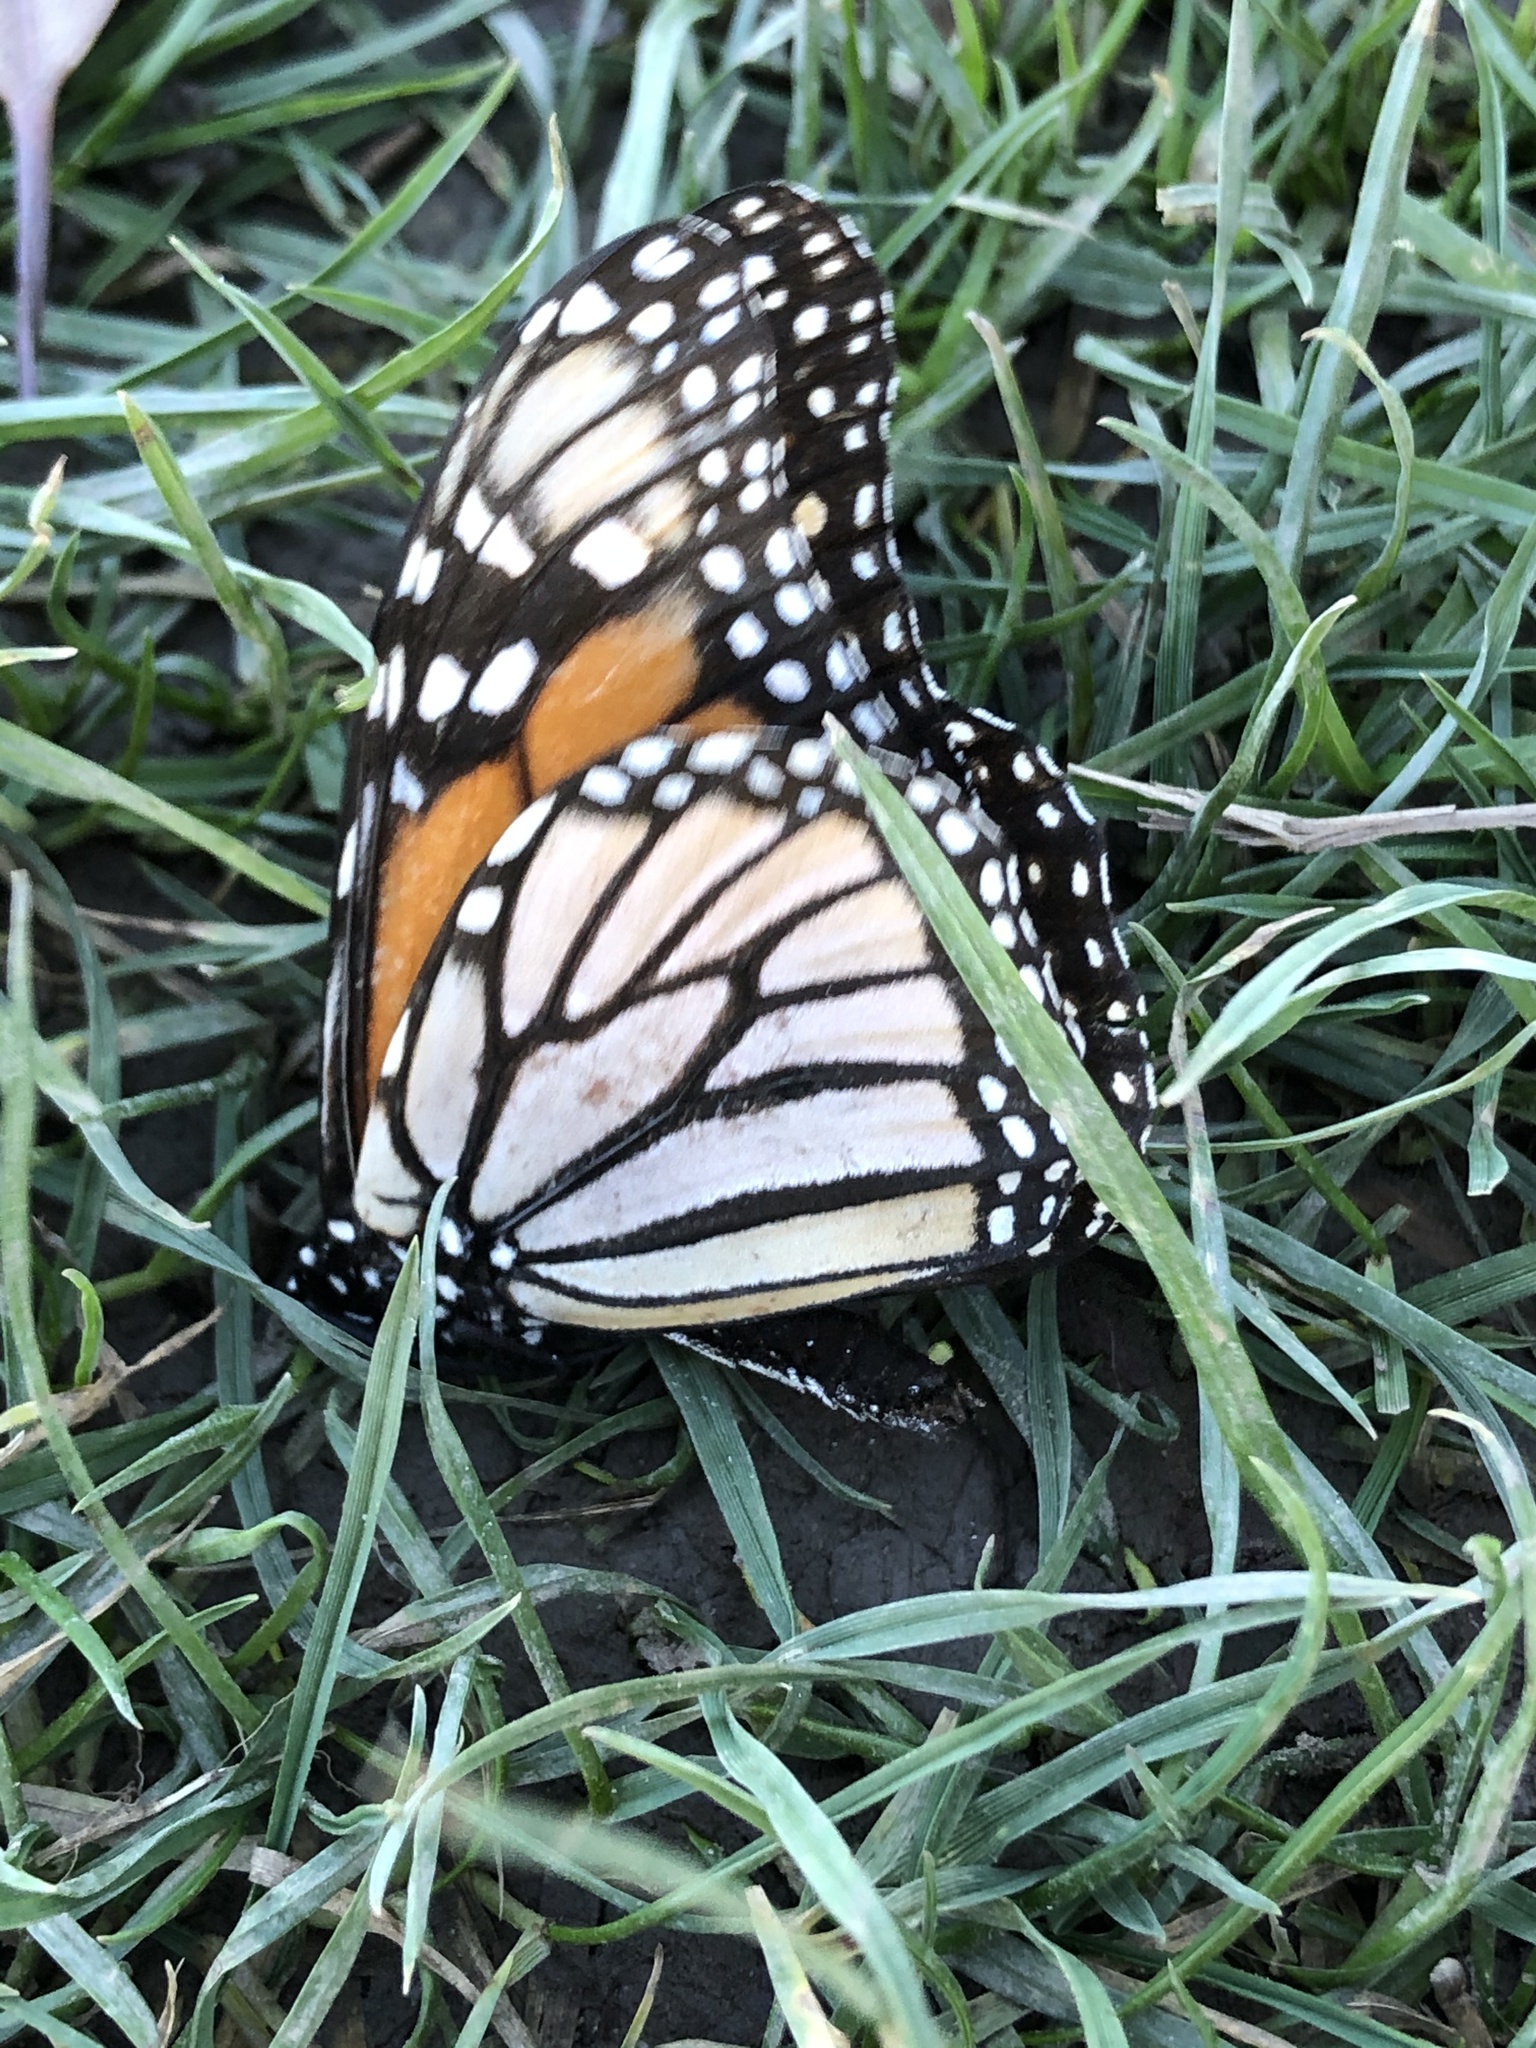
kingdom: Animalia
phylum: Arthropoda
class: Insecta
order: Lepidoptera
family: Nymphalidae
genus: Danaus
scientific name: Danaus plexippus
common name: Monarch
